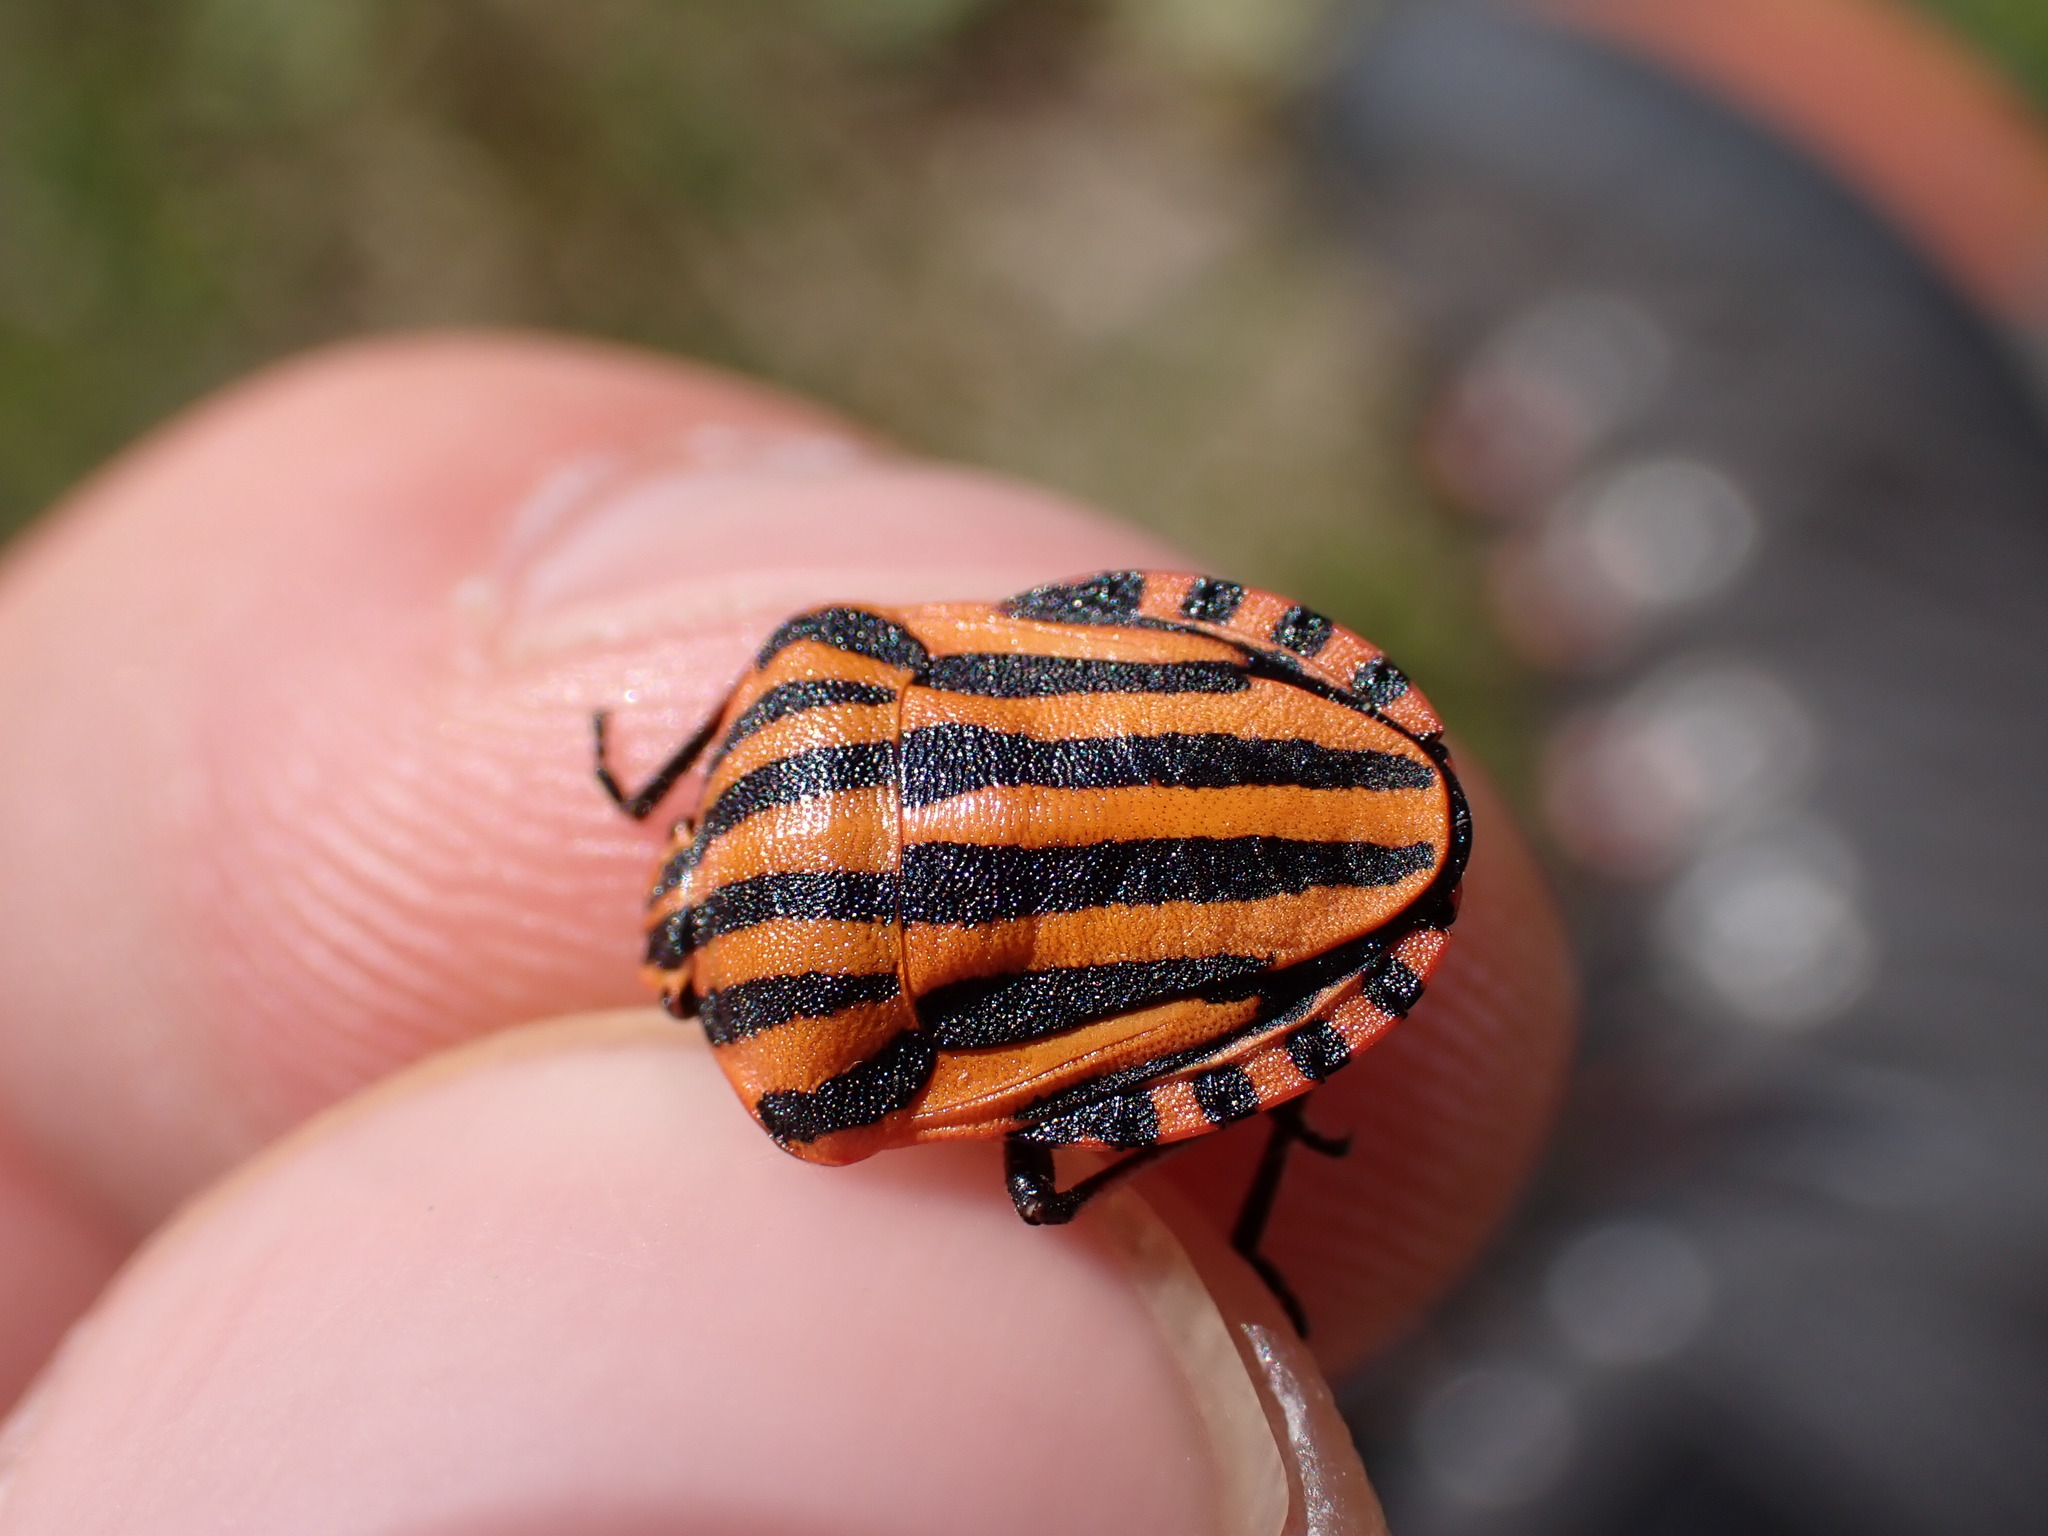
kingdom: Animalia
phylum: Arthropoda
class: Insecta
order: Hemiptera
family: Pentatomidae
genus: Graphosoma
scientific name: Graphosoma italicum
